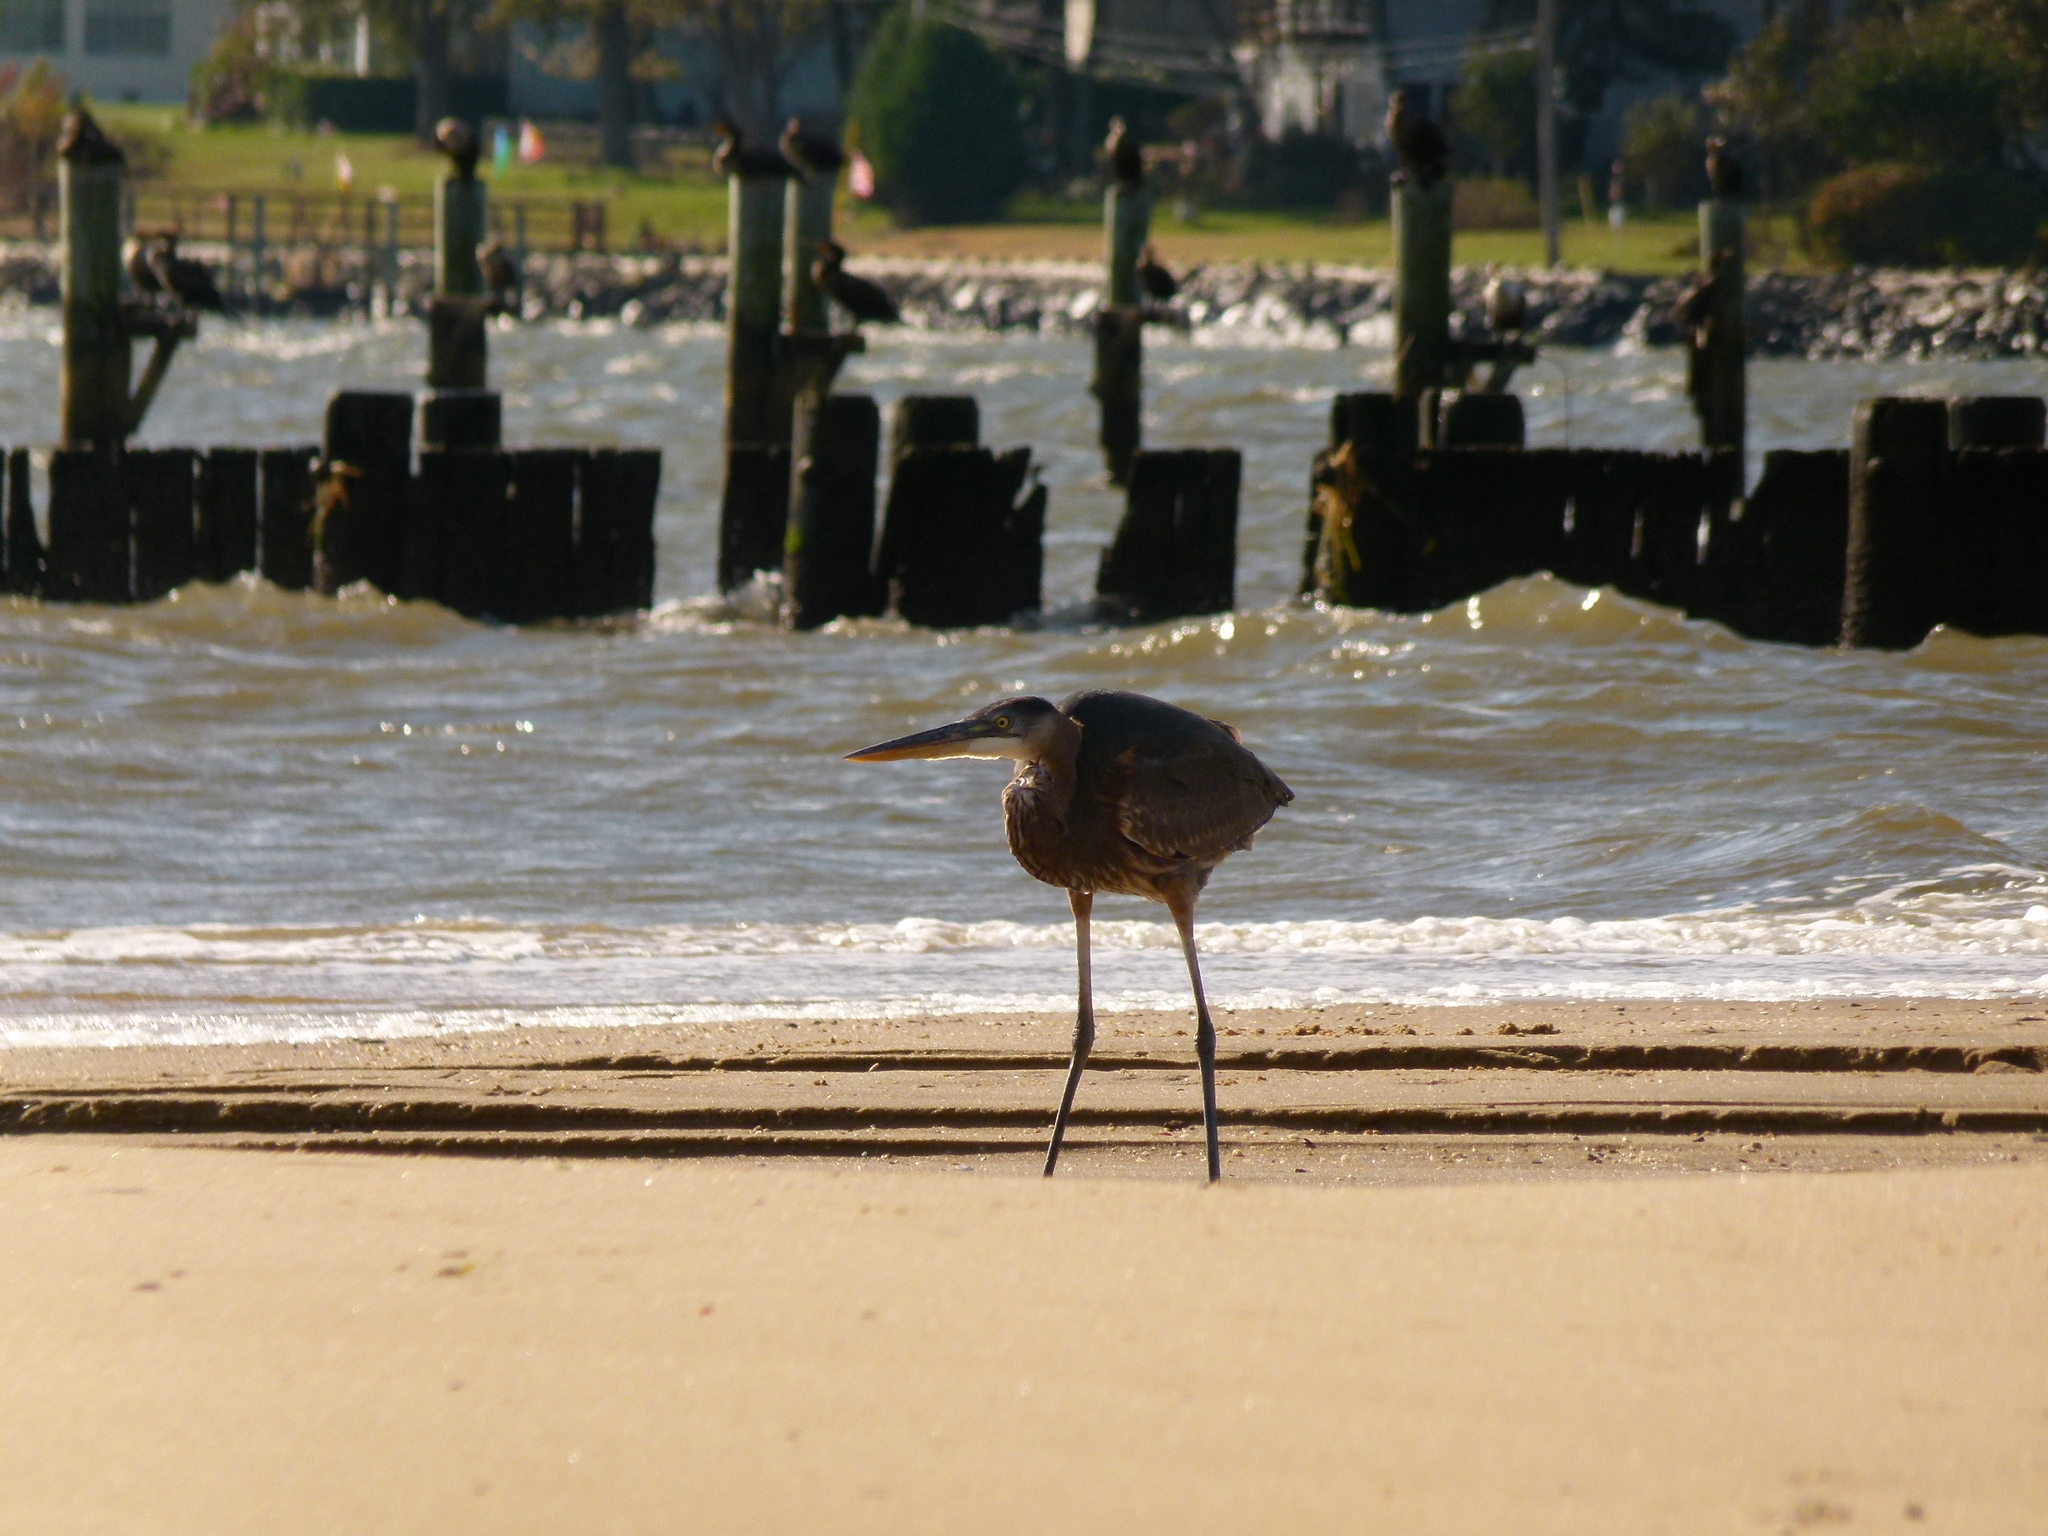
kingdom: Animalia
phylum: Chordata
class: Aves
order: Pelecaniformes
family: Ardeidae
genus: Ardea
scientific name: Ardea herodias
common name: Great blue heron
